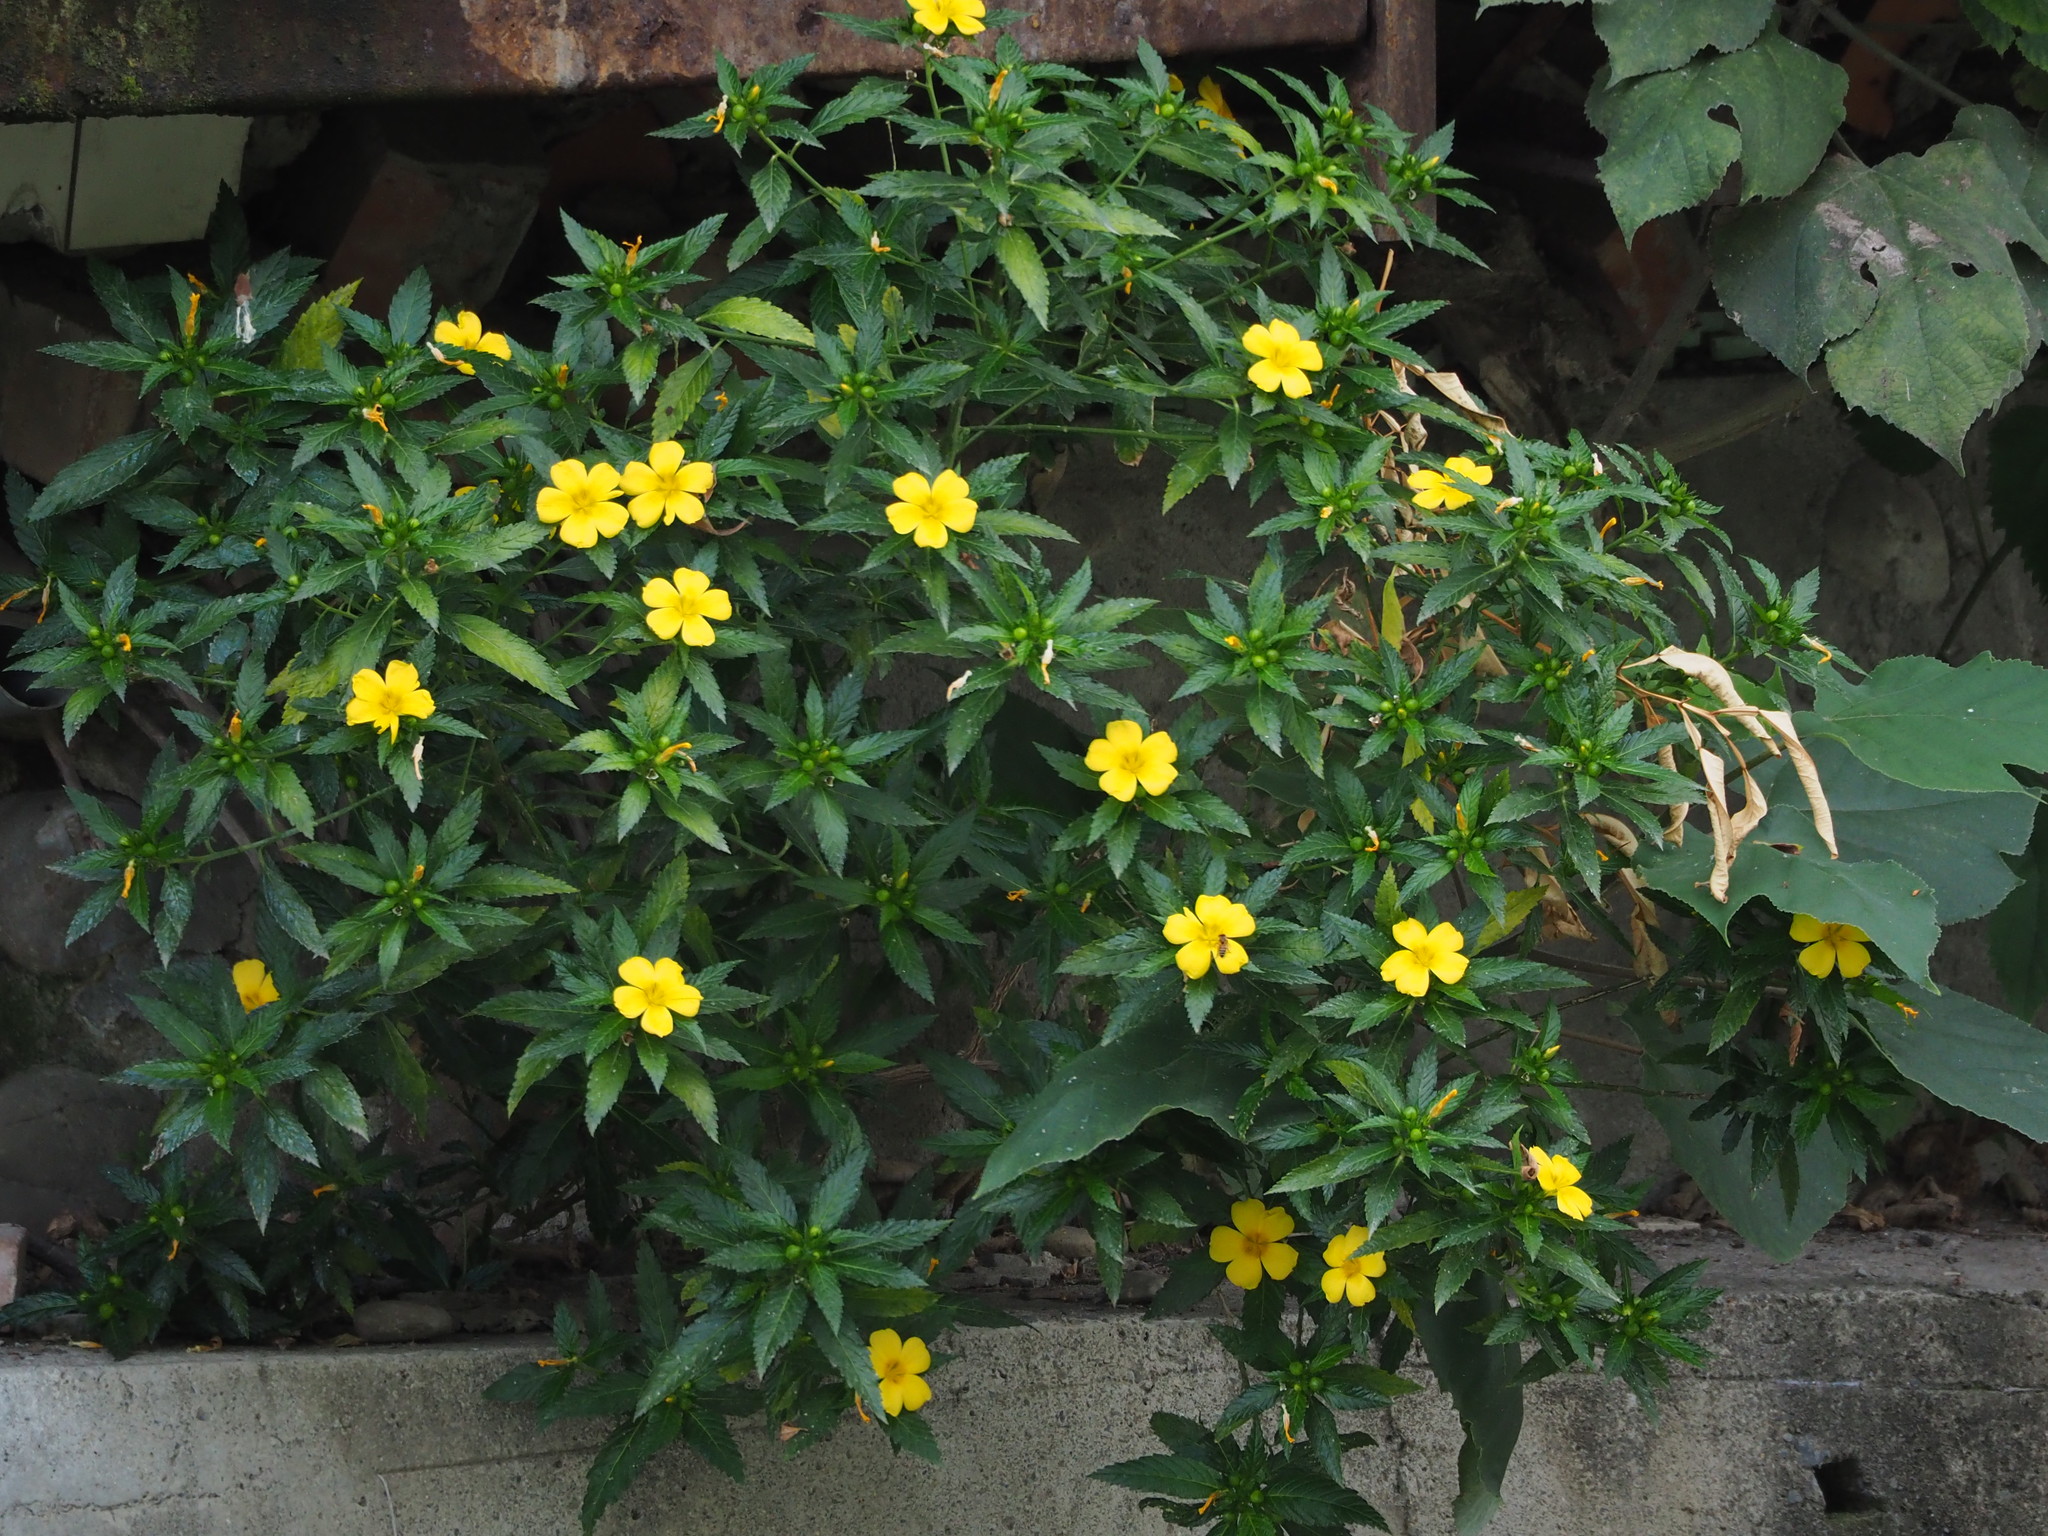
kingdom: Plantae
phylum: Tracheophyta
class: Magnoliopsida
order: Malpighiales
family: Turneraceae
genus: Turnera
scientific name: Turnera ulmifolia
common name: Ramgoat dashalong
